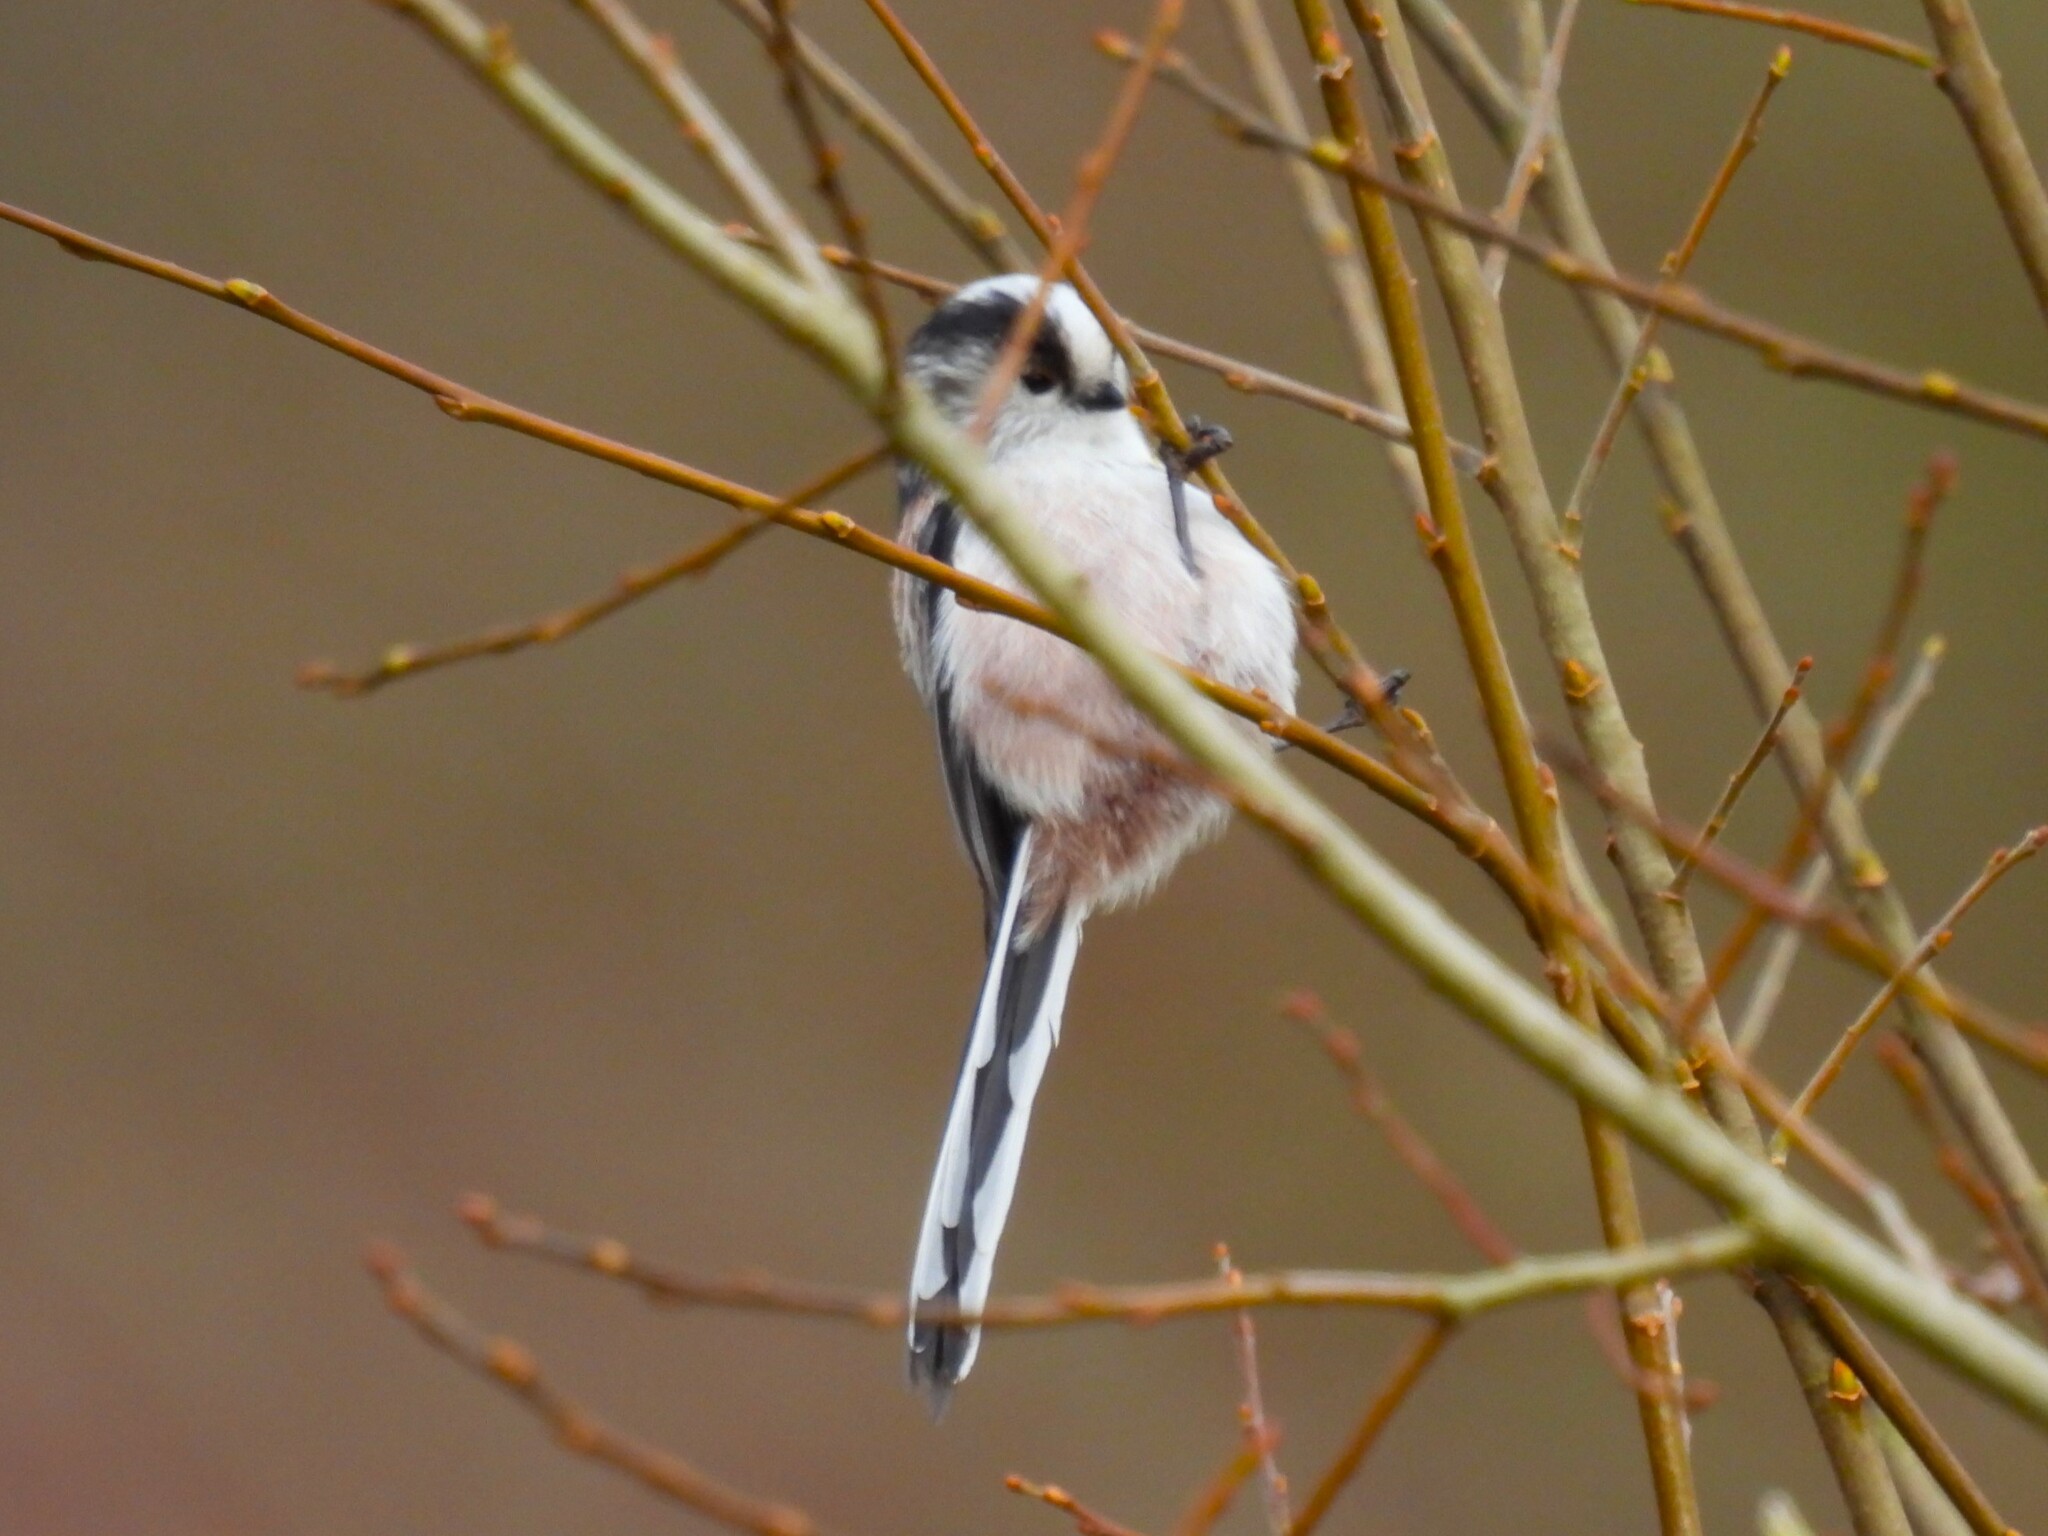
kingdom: Animalia
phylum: Chordata
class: Aves
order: Passeriformes
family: Aegithalidae
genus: Aegithalos
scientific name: Aegithalos caudatus
